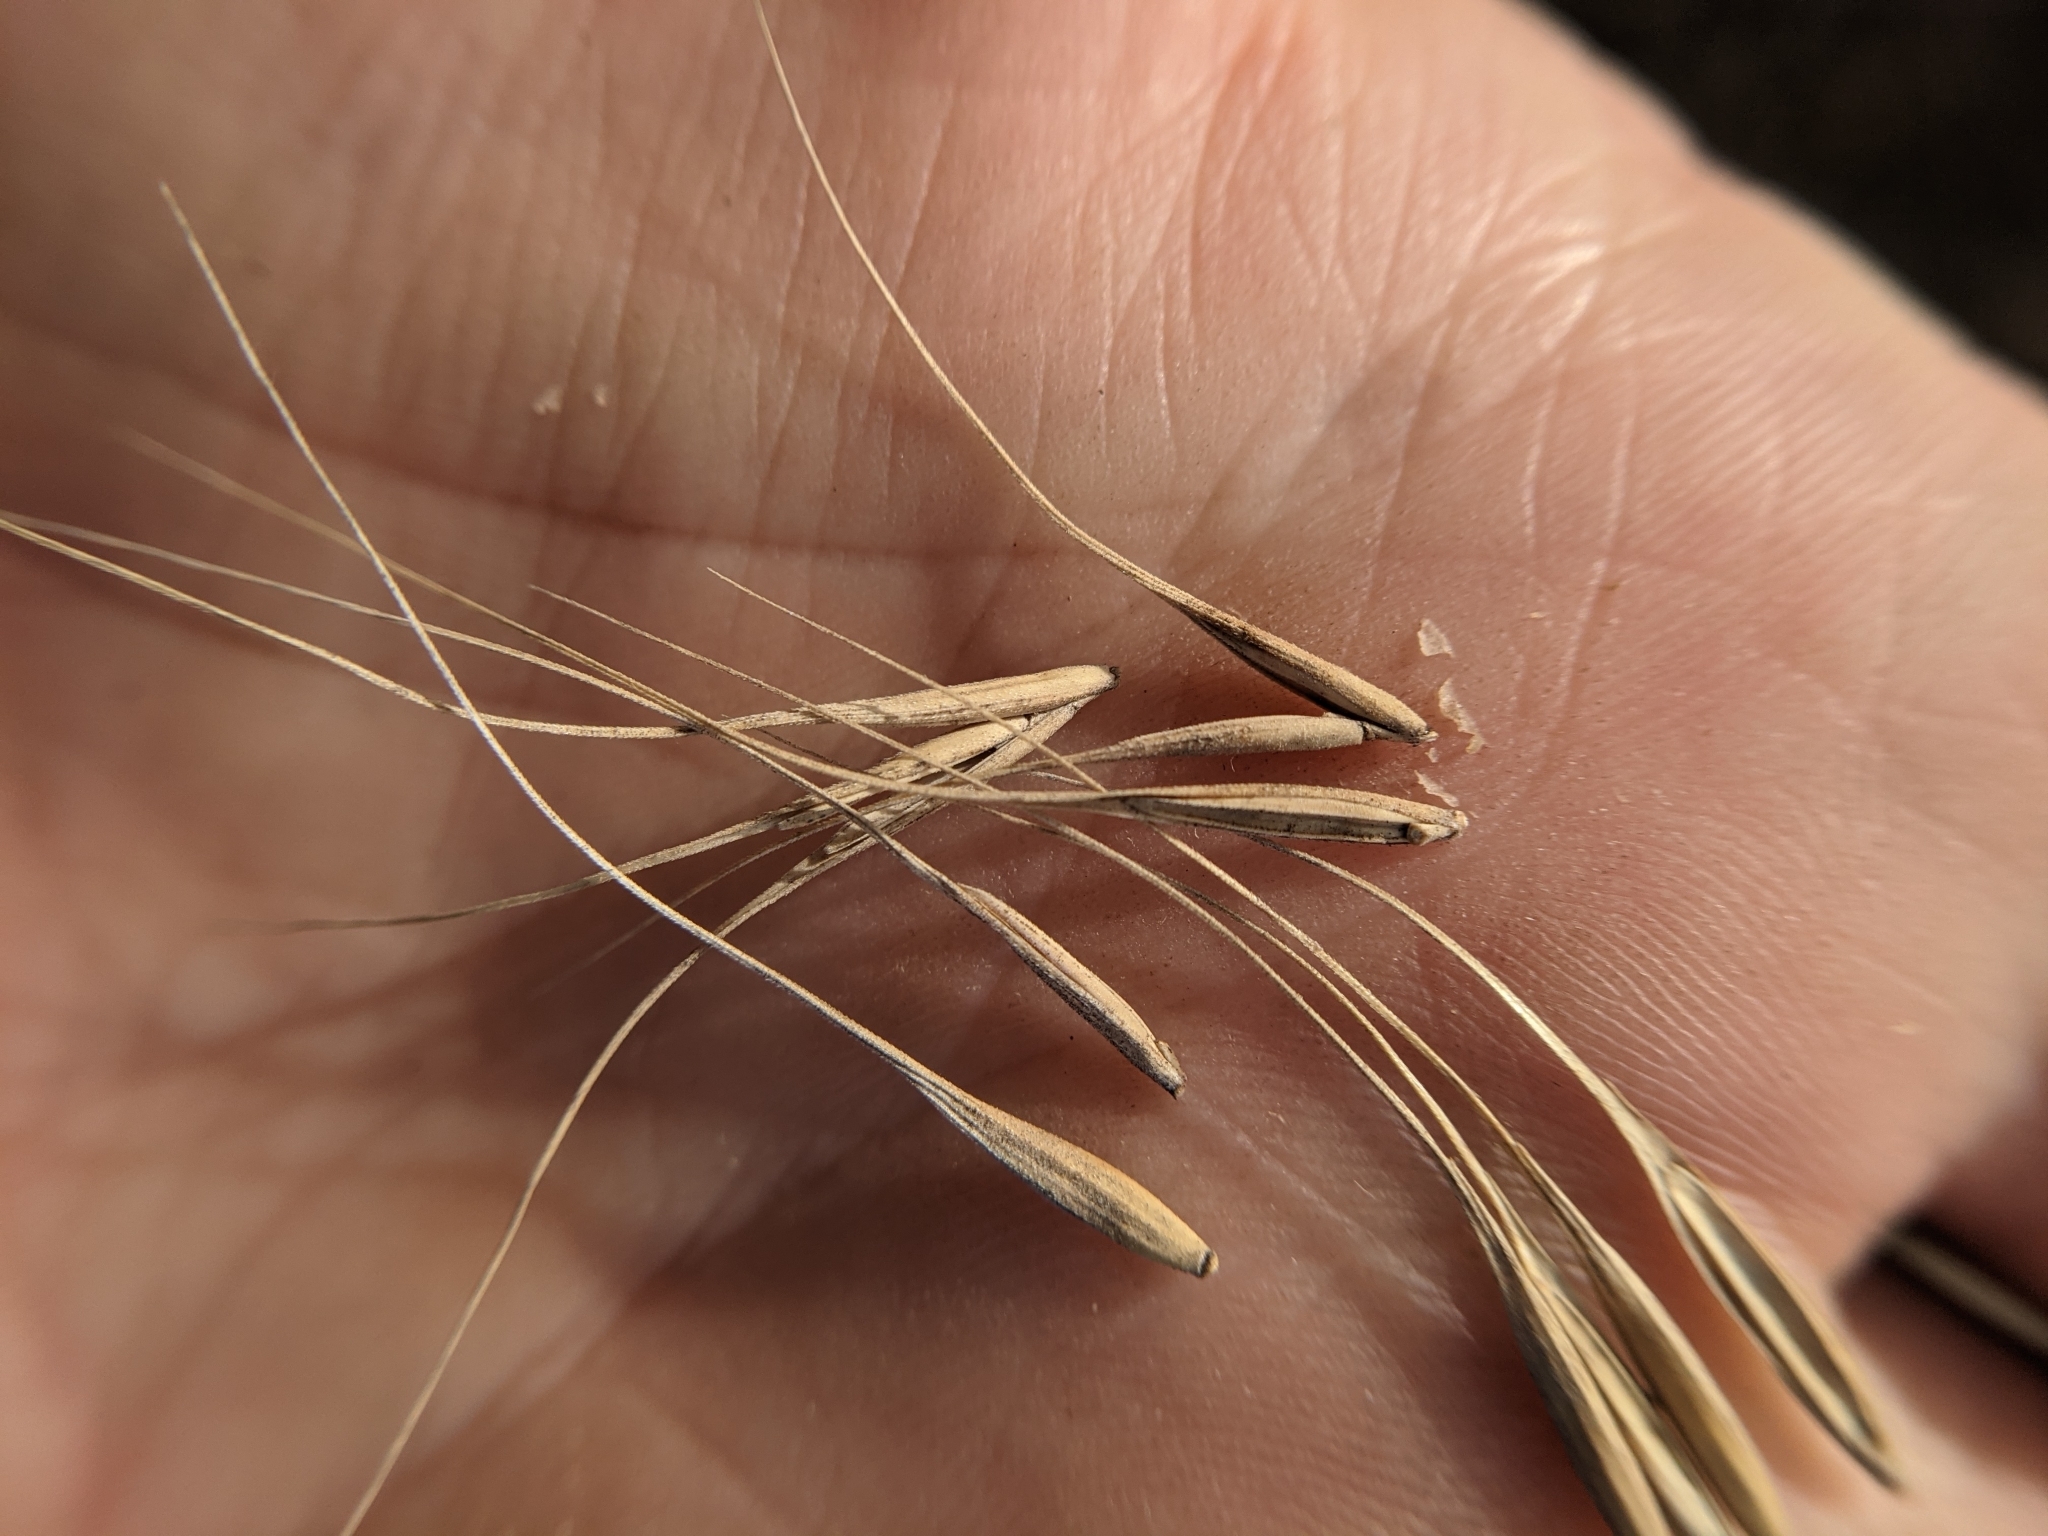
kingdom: Plantae
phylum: Tracheophyta
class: Liliopsida
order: Poales
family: Poaceae
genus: Elymus
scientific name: Elymus canadensis
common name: Canada wild rye
